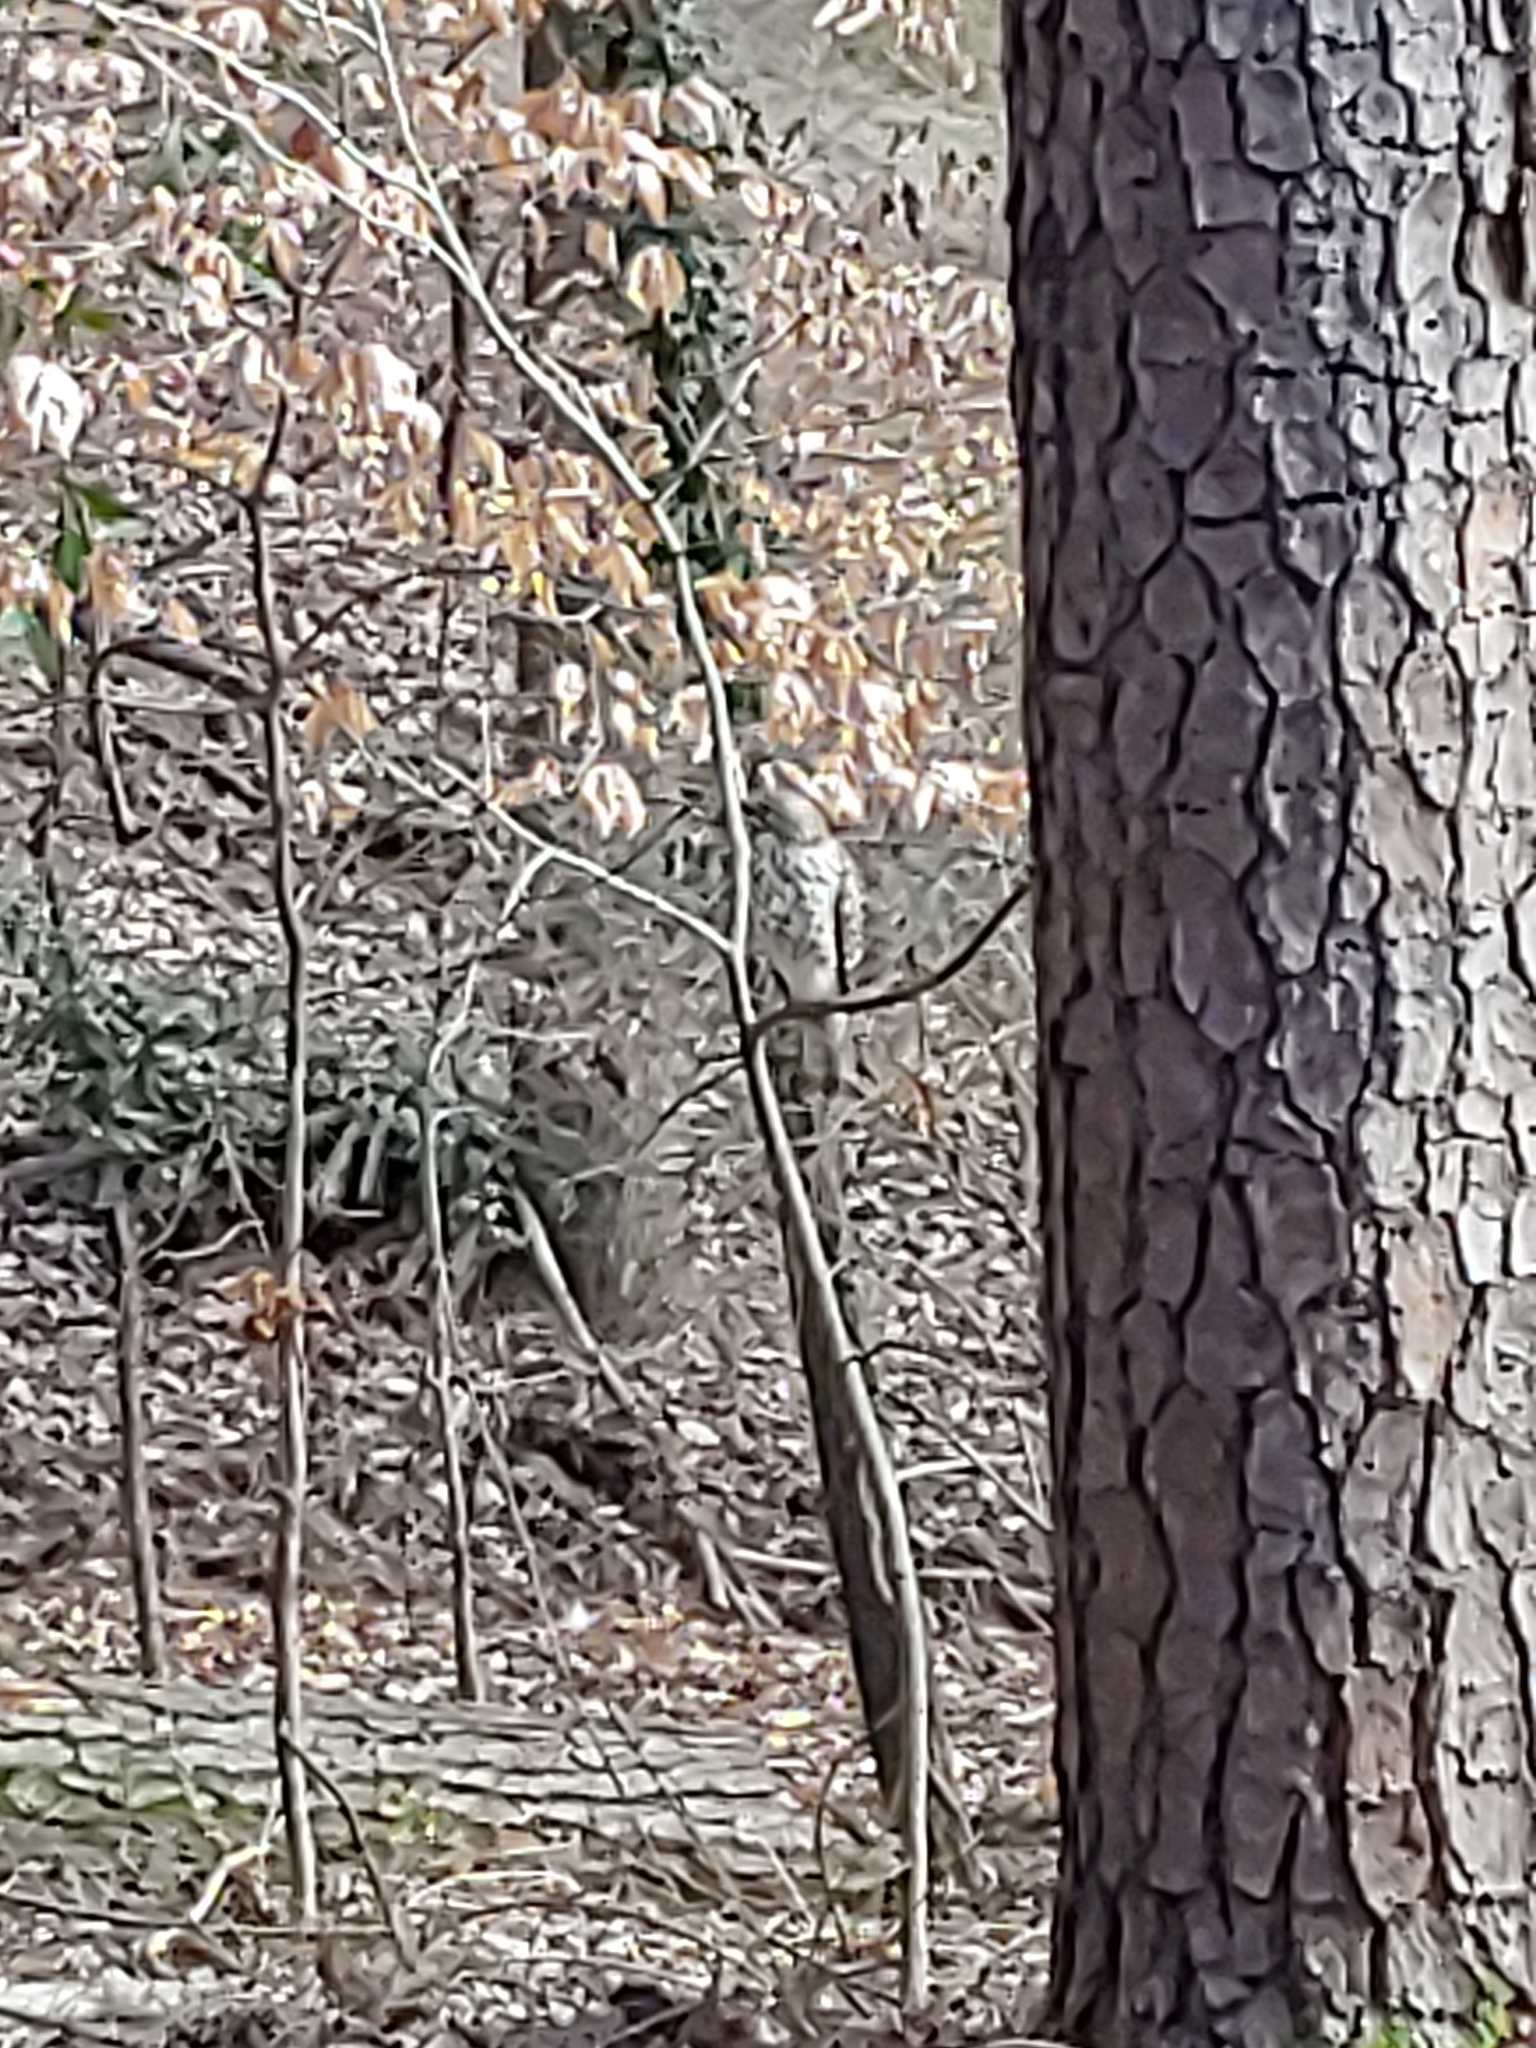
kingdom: Animalia
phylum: Chordata
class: Aves
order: Accipitriformes
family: Accipitridae
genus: Buteo
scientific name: Buteo lineatus
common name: Red-shouldered hawk
